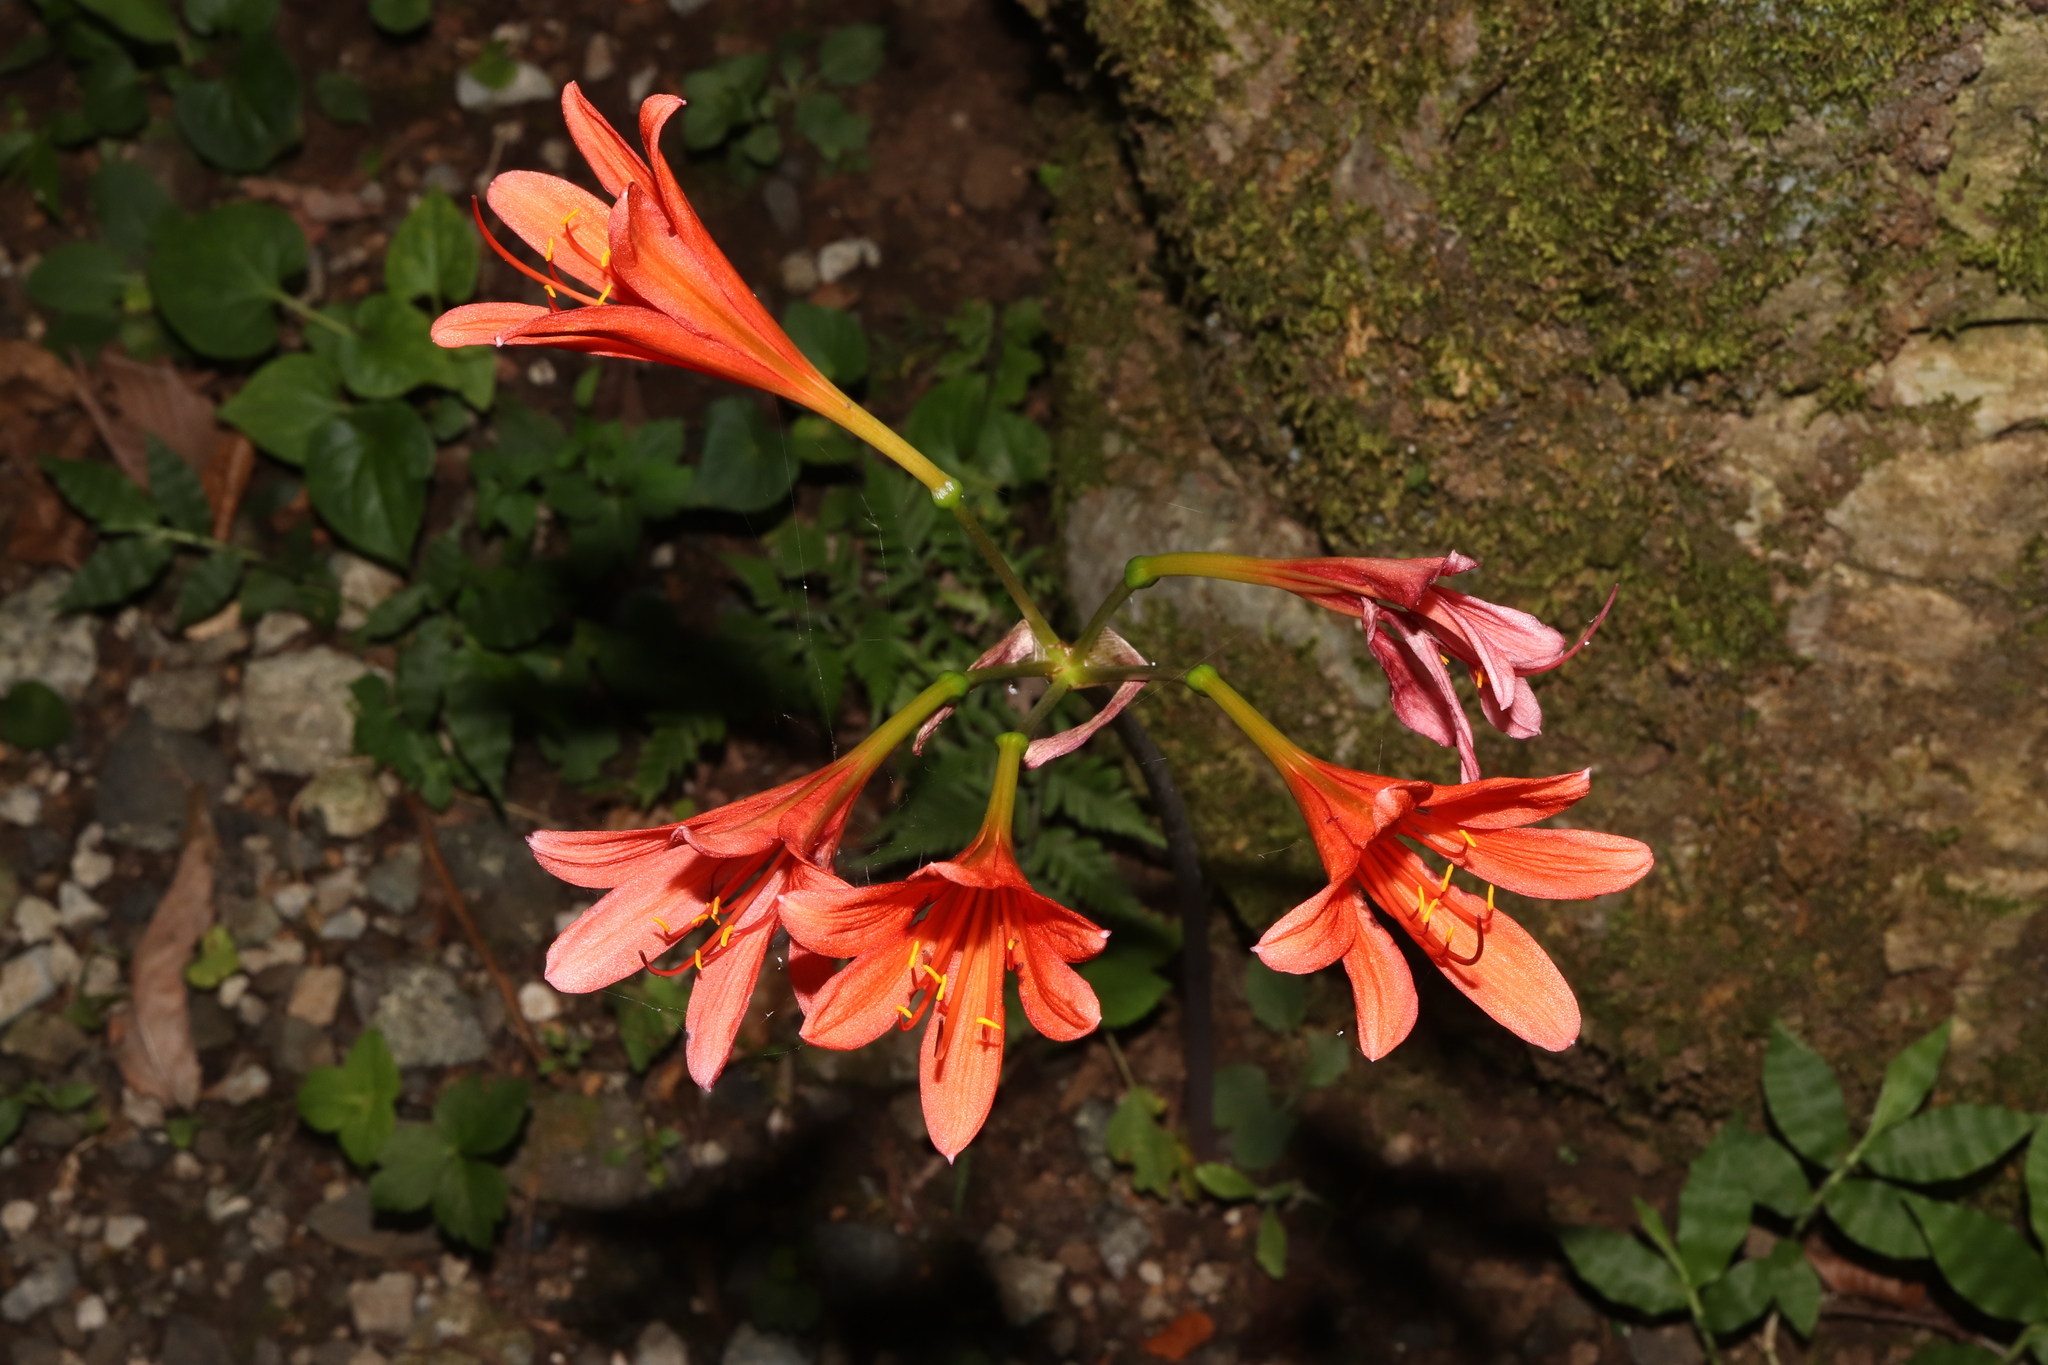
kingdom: Plantae
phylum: Tracheophyta
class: Liliopsida
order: Asparagales
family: Amaryllidaceae
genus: Lycoris
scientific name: Lycoris sanguinea
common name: Spider-lily
